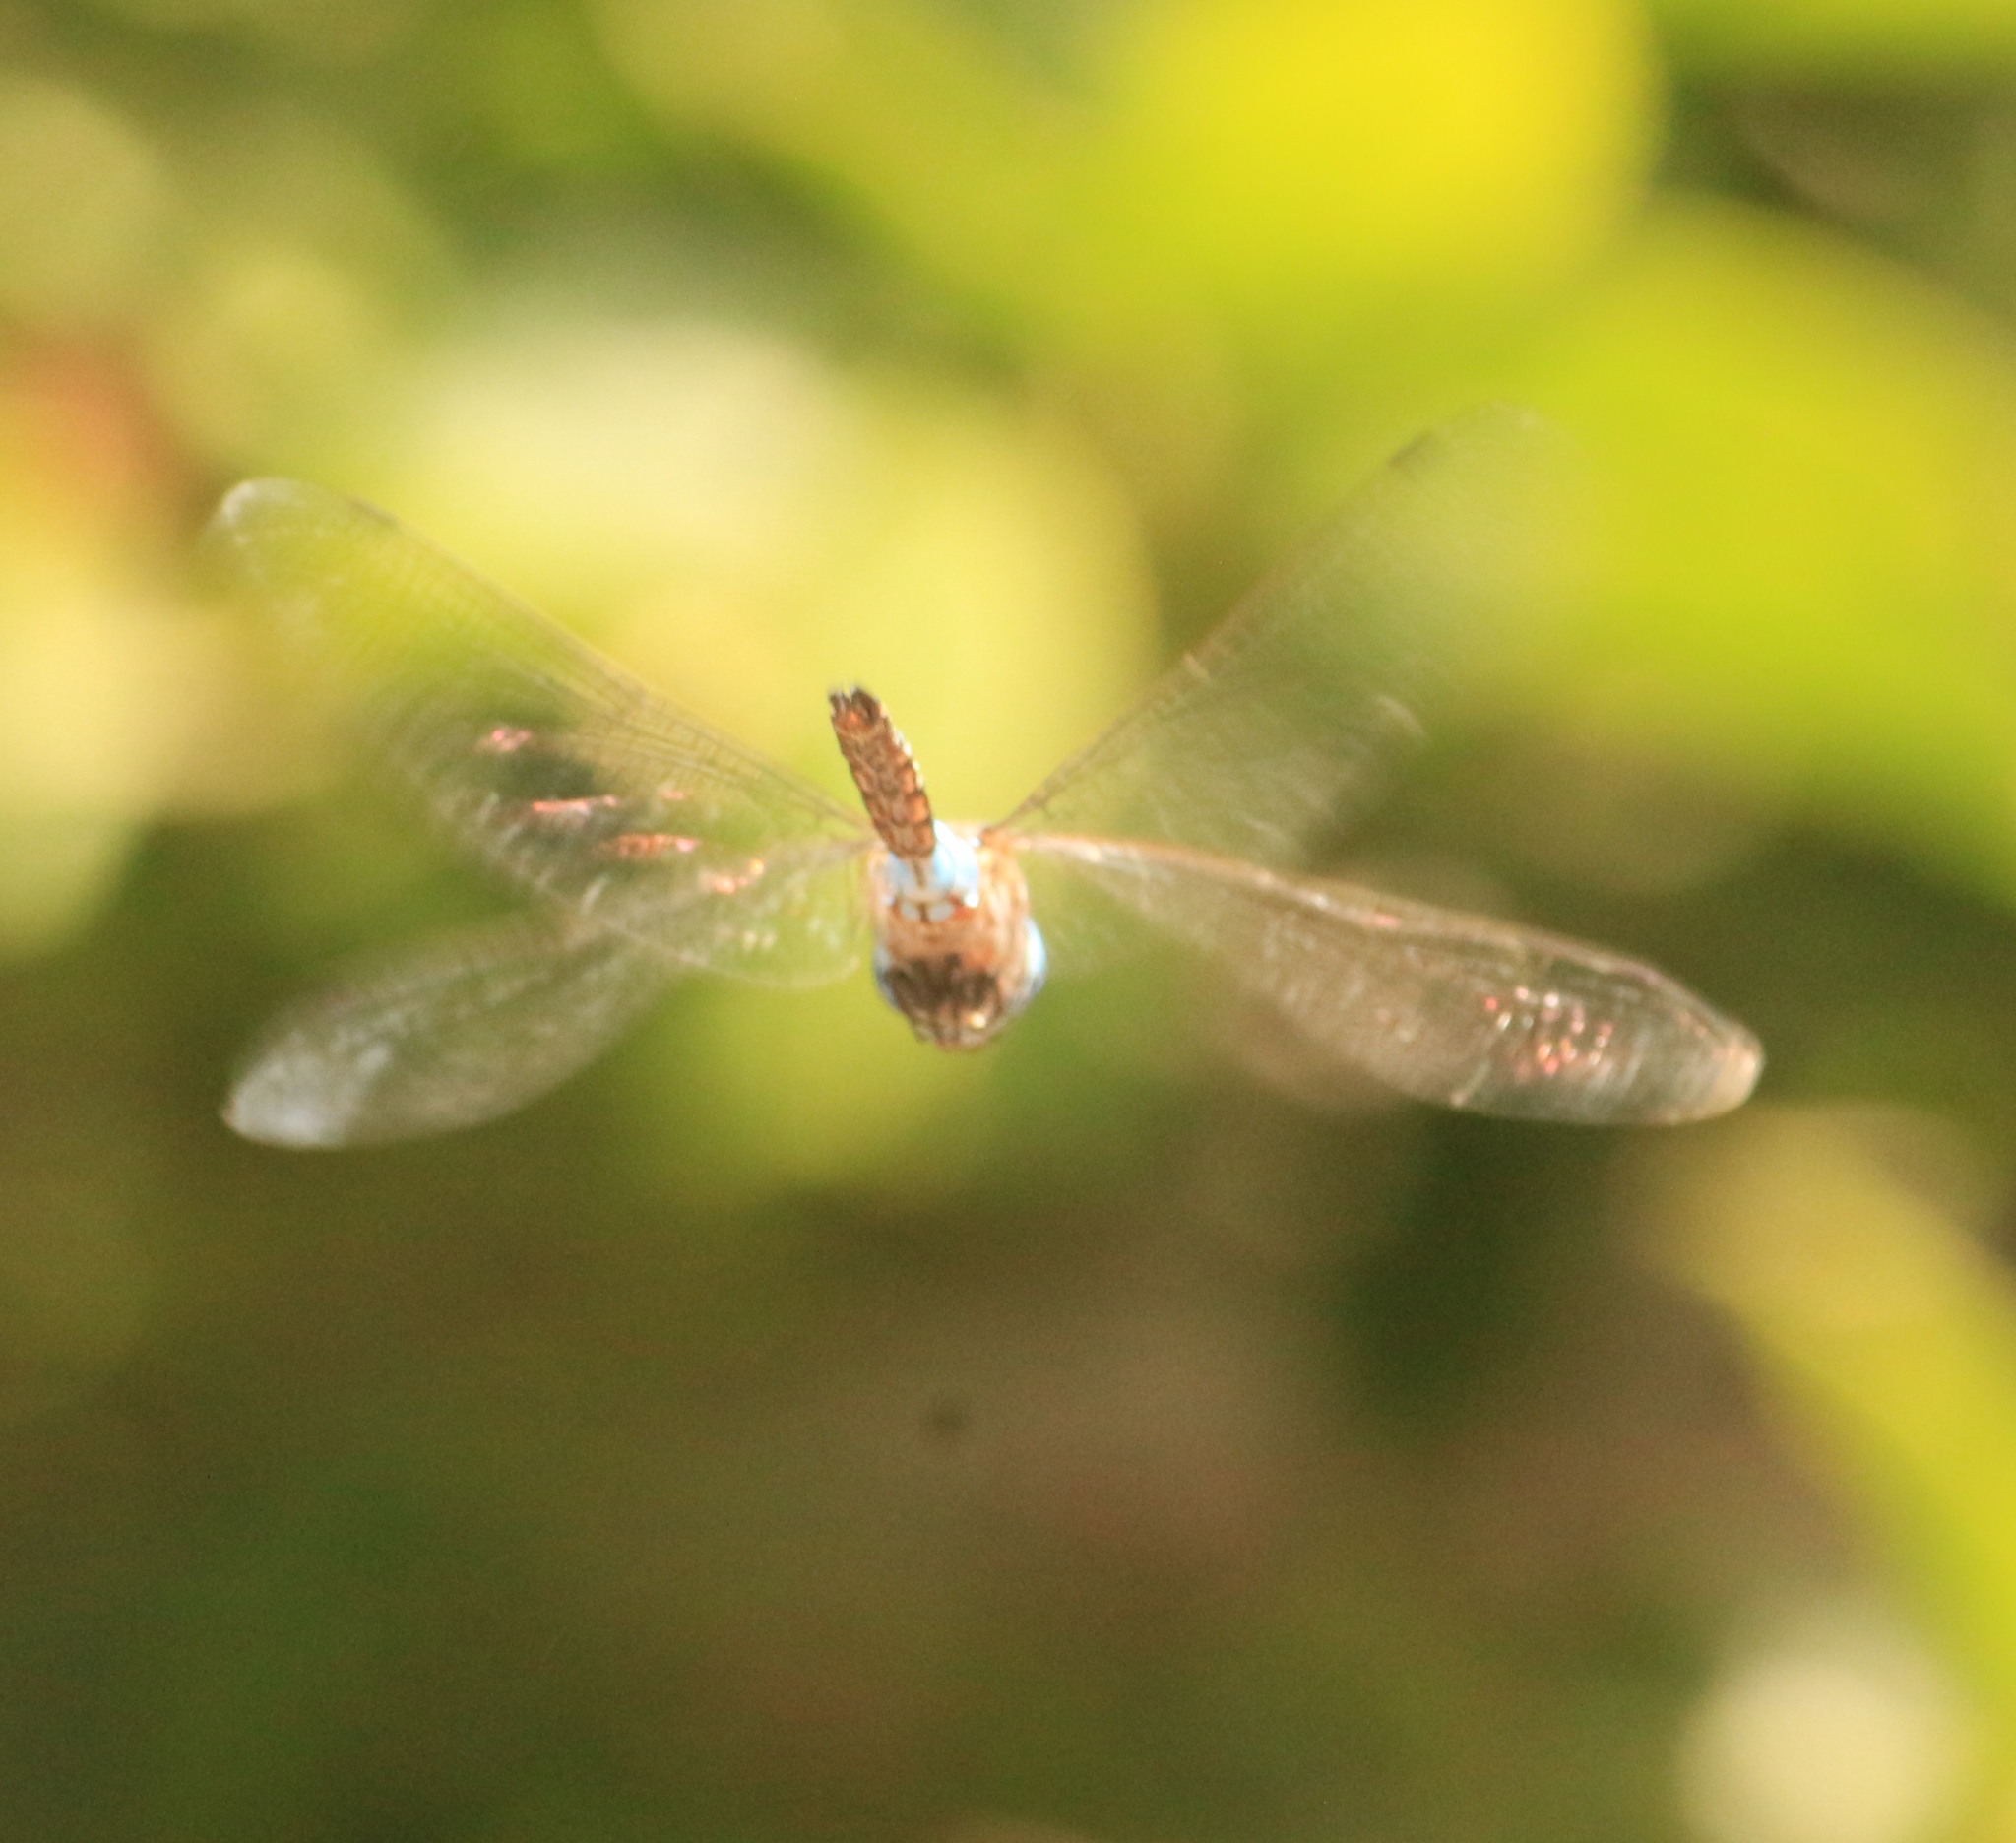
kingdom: Animalia
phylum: Arthropoda
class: Insecta
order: Odonata
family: Aeshnidae
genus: Rhionaeschna
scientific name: Rhionaeschna multicolor
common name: Blue-eyed darner
